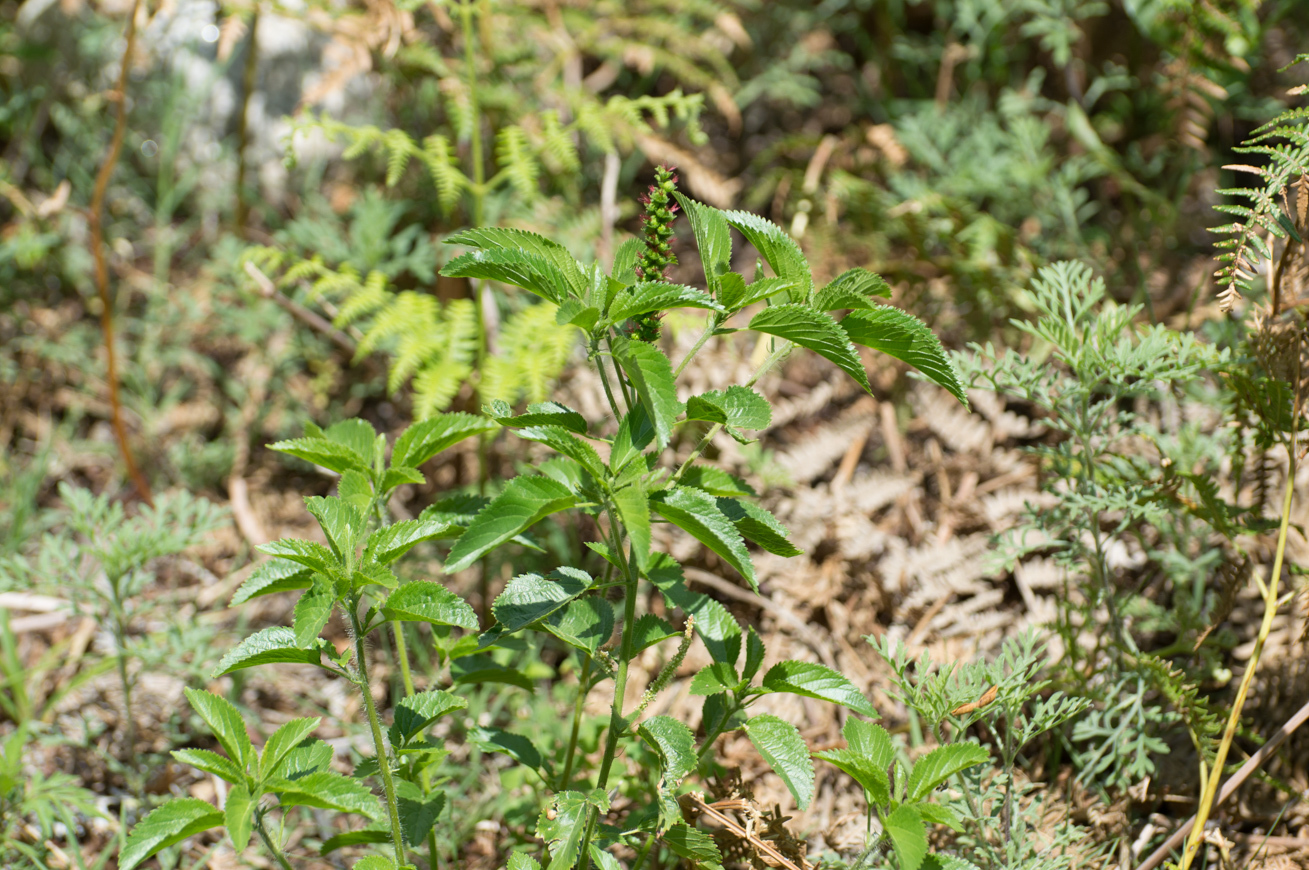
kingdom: Plantae
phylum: Tracheophyta
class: Magnoliopsida
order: Malpighiales
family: Euphorbiaceae
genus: Acalypha
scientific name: Acalypha communis
